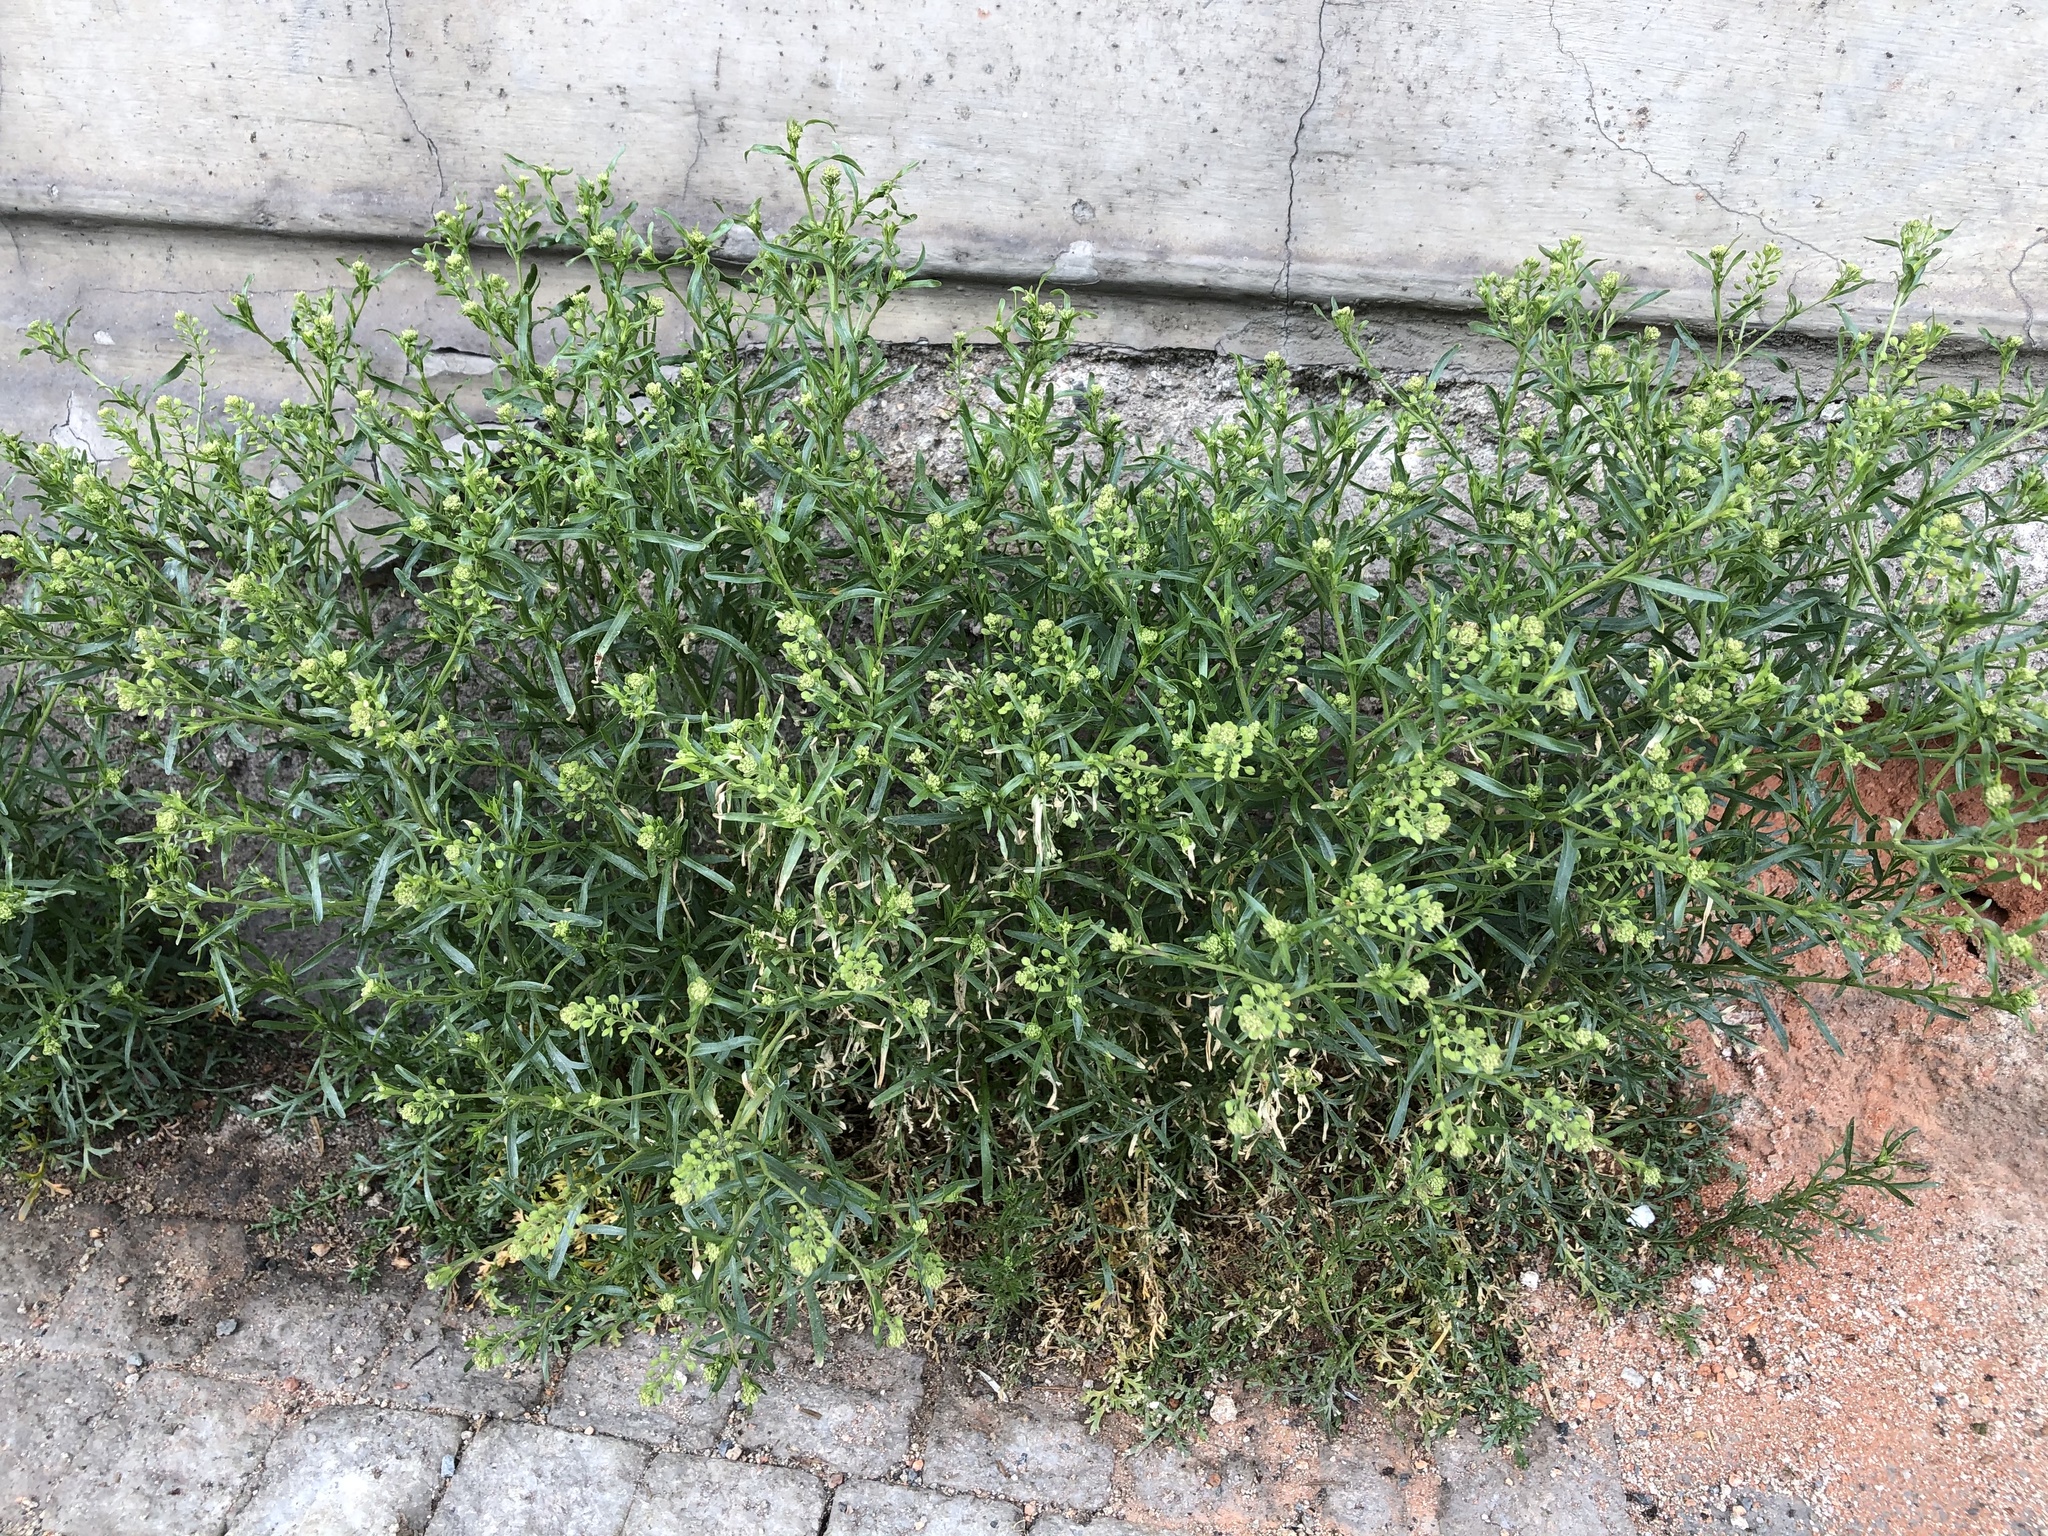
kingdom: Plantae
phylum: Tracheophyta
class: Magnoliopsida
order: Brassicales
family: Brassicaceae
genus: Lepidium
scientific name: Lepidium ruderale
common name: Narrow-leaved pepperwort
